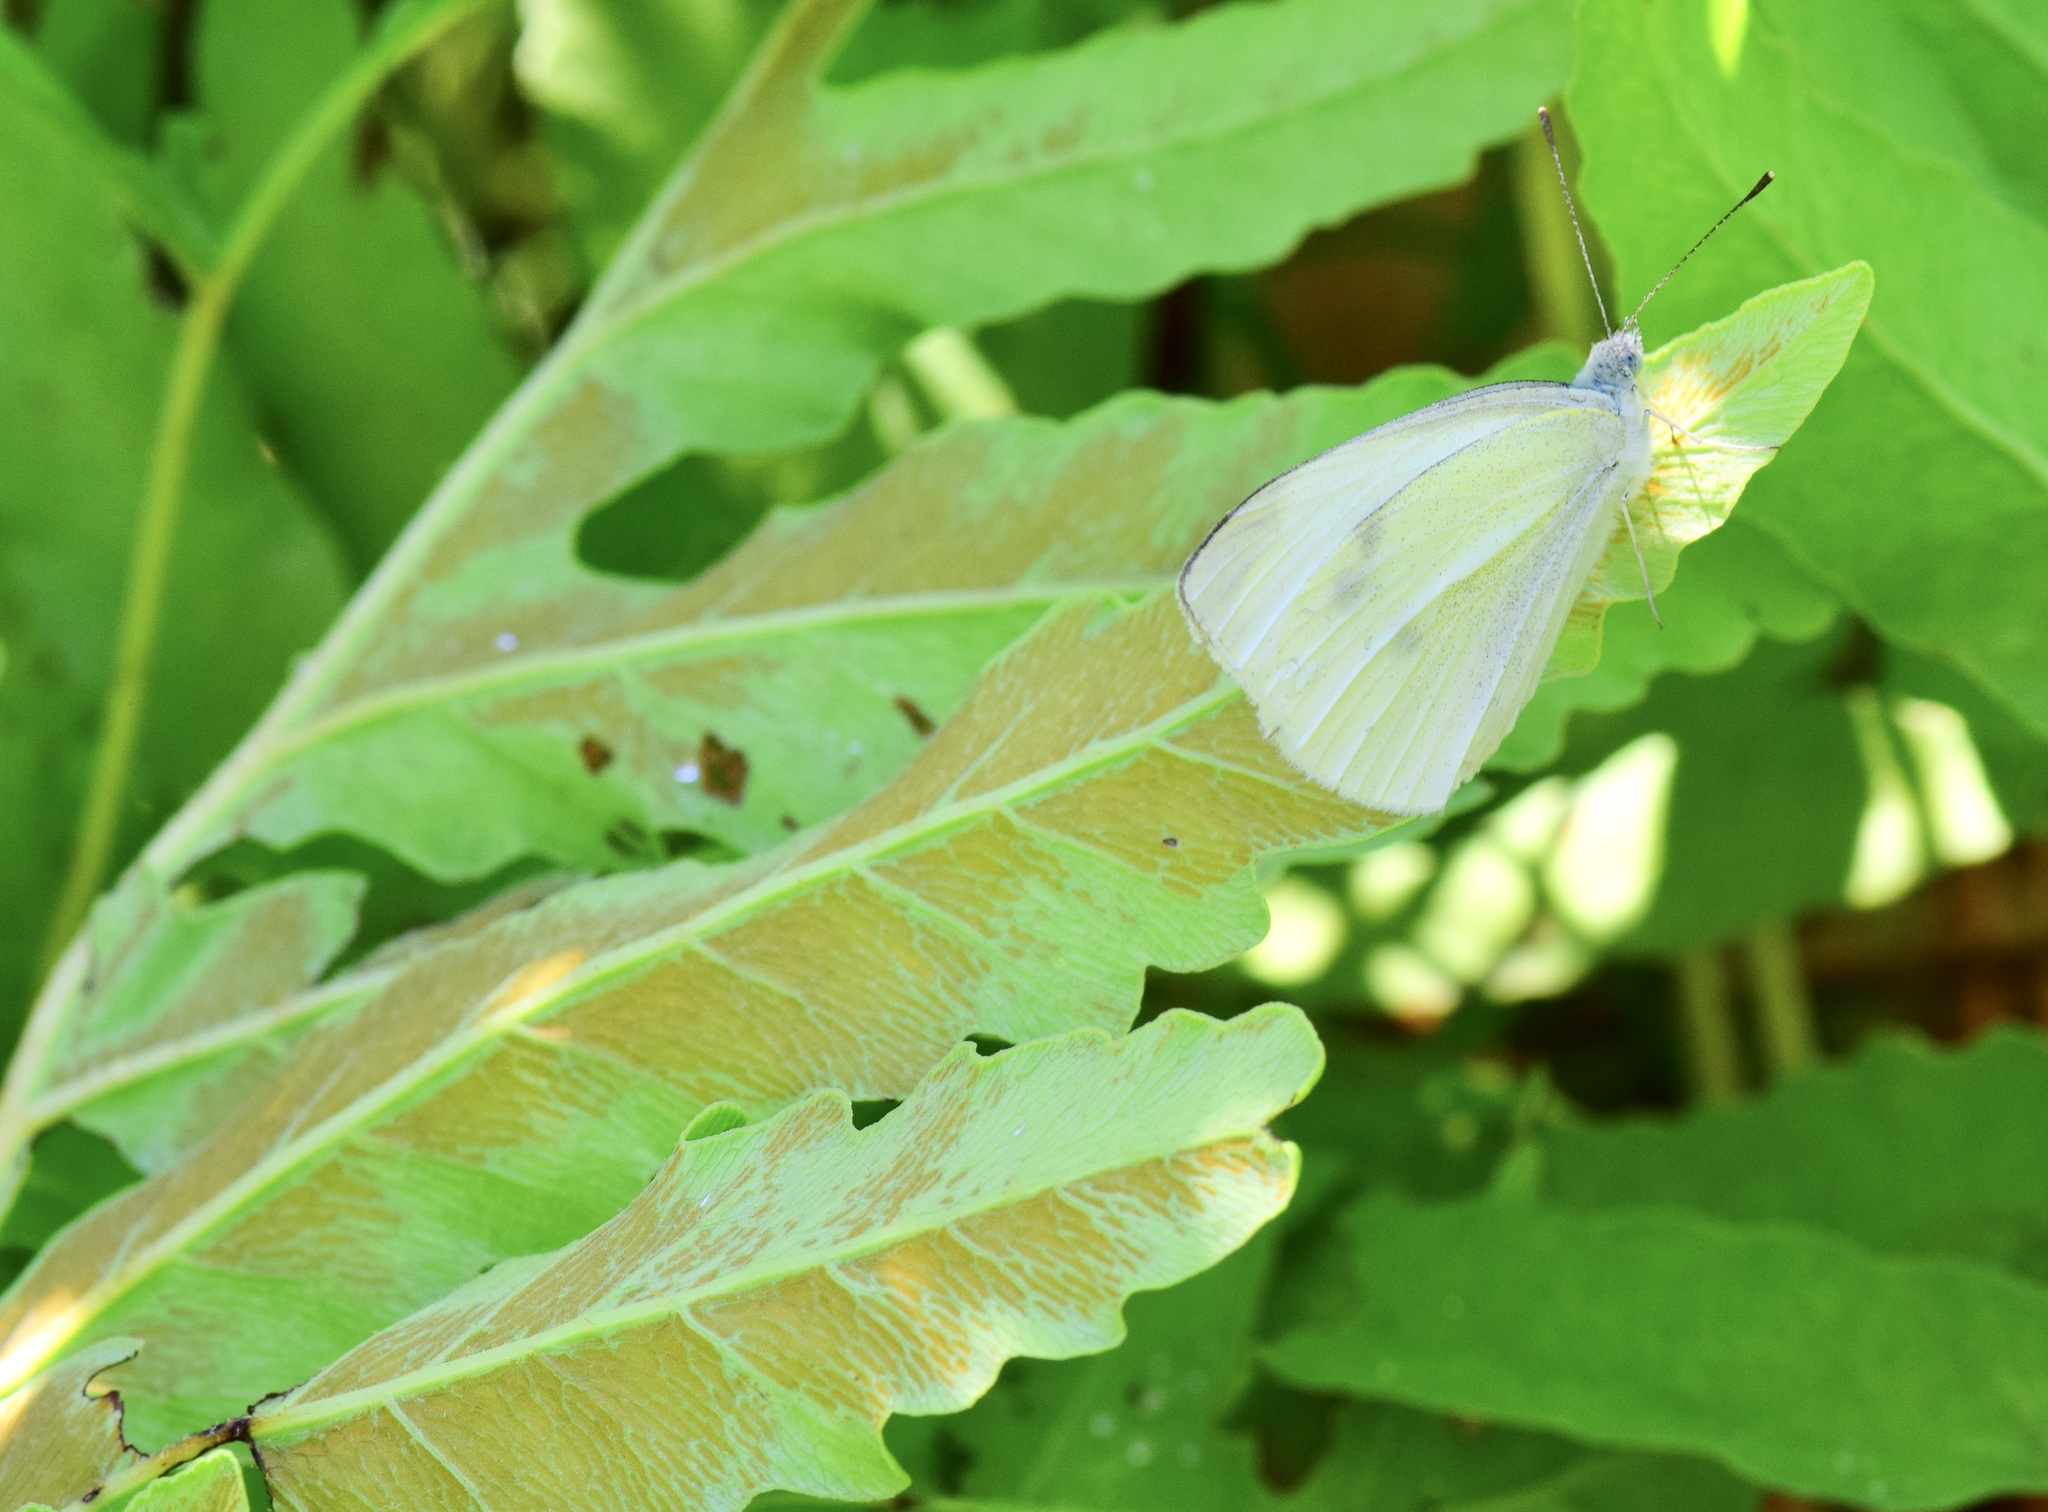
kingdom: Animalia
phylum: Arthropoda
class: Insecta
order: Lepidoptera
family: Pieridae
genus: Pieris
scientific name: Pieris rapae
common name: Small white
